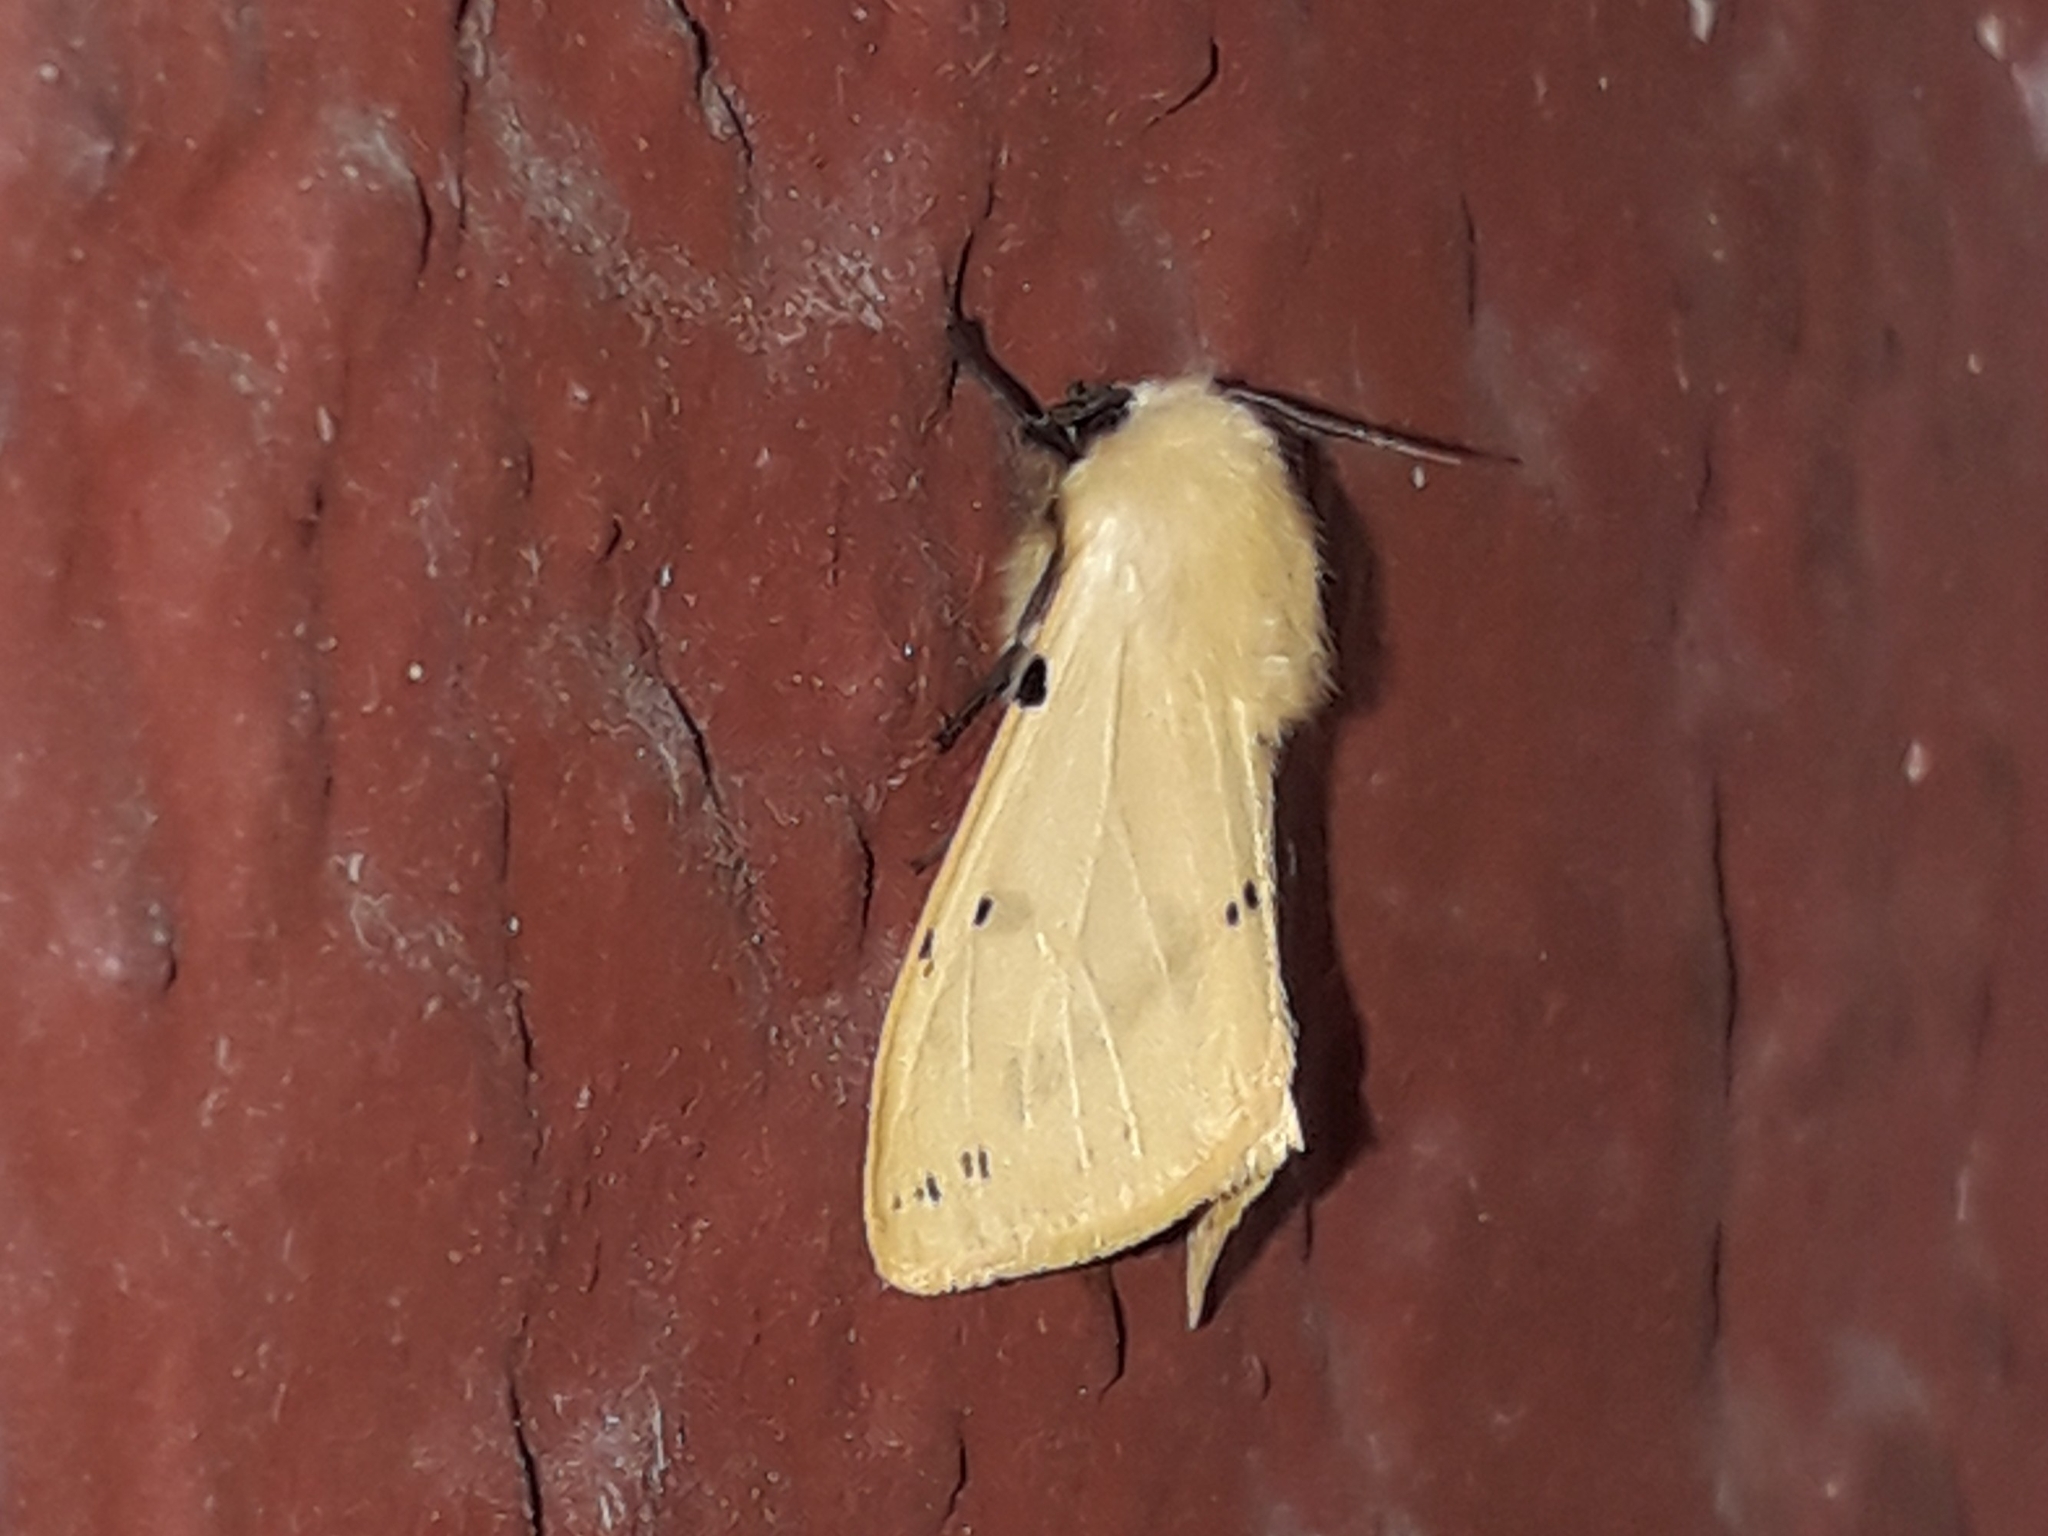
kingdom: Animalia
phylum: Arthropoda
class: Insecta
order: Lepidoptera
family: Erebidae
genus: Spilarctia
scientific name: Spilarctia lutea
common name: Buff ermine
